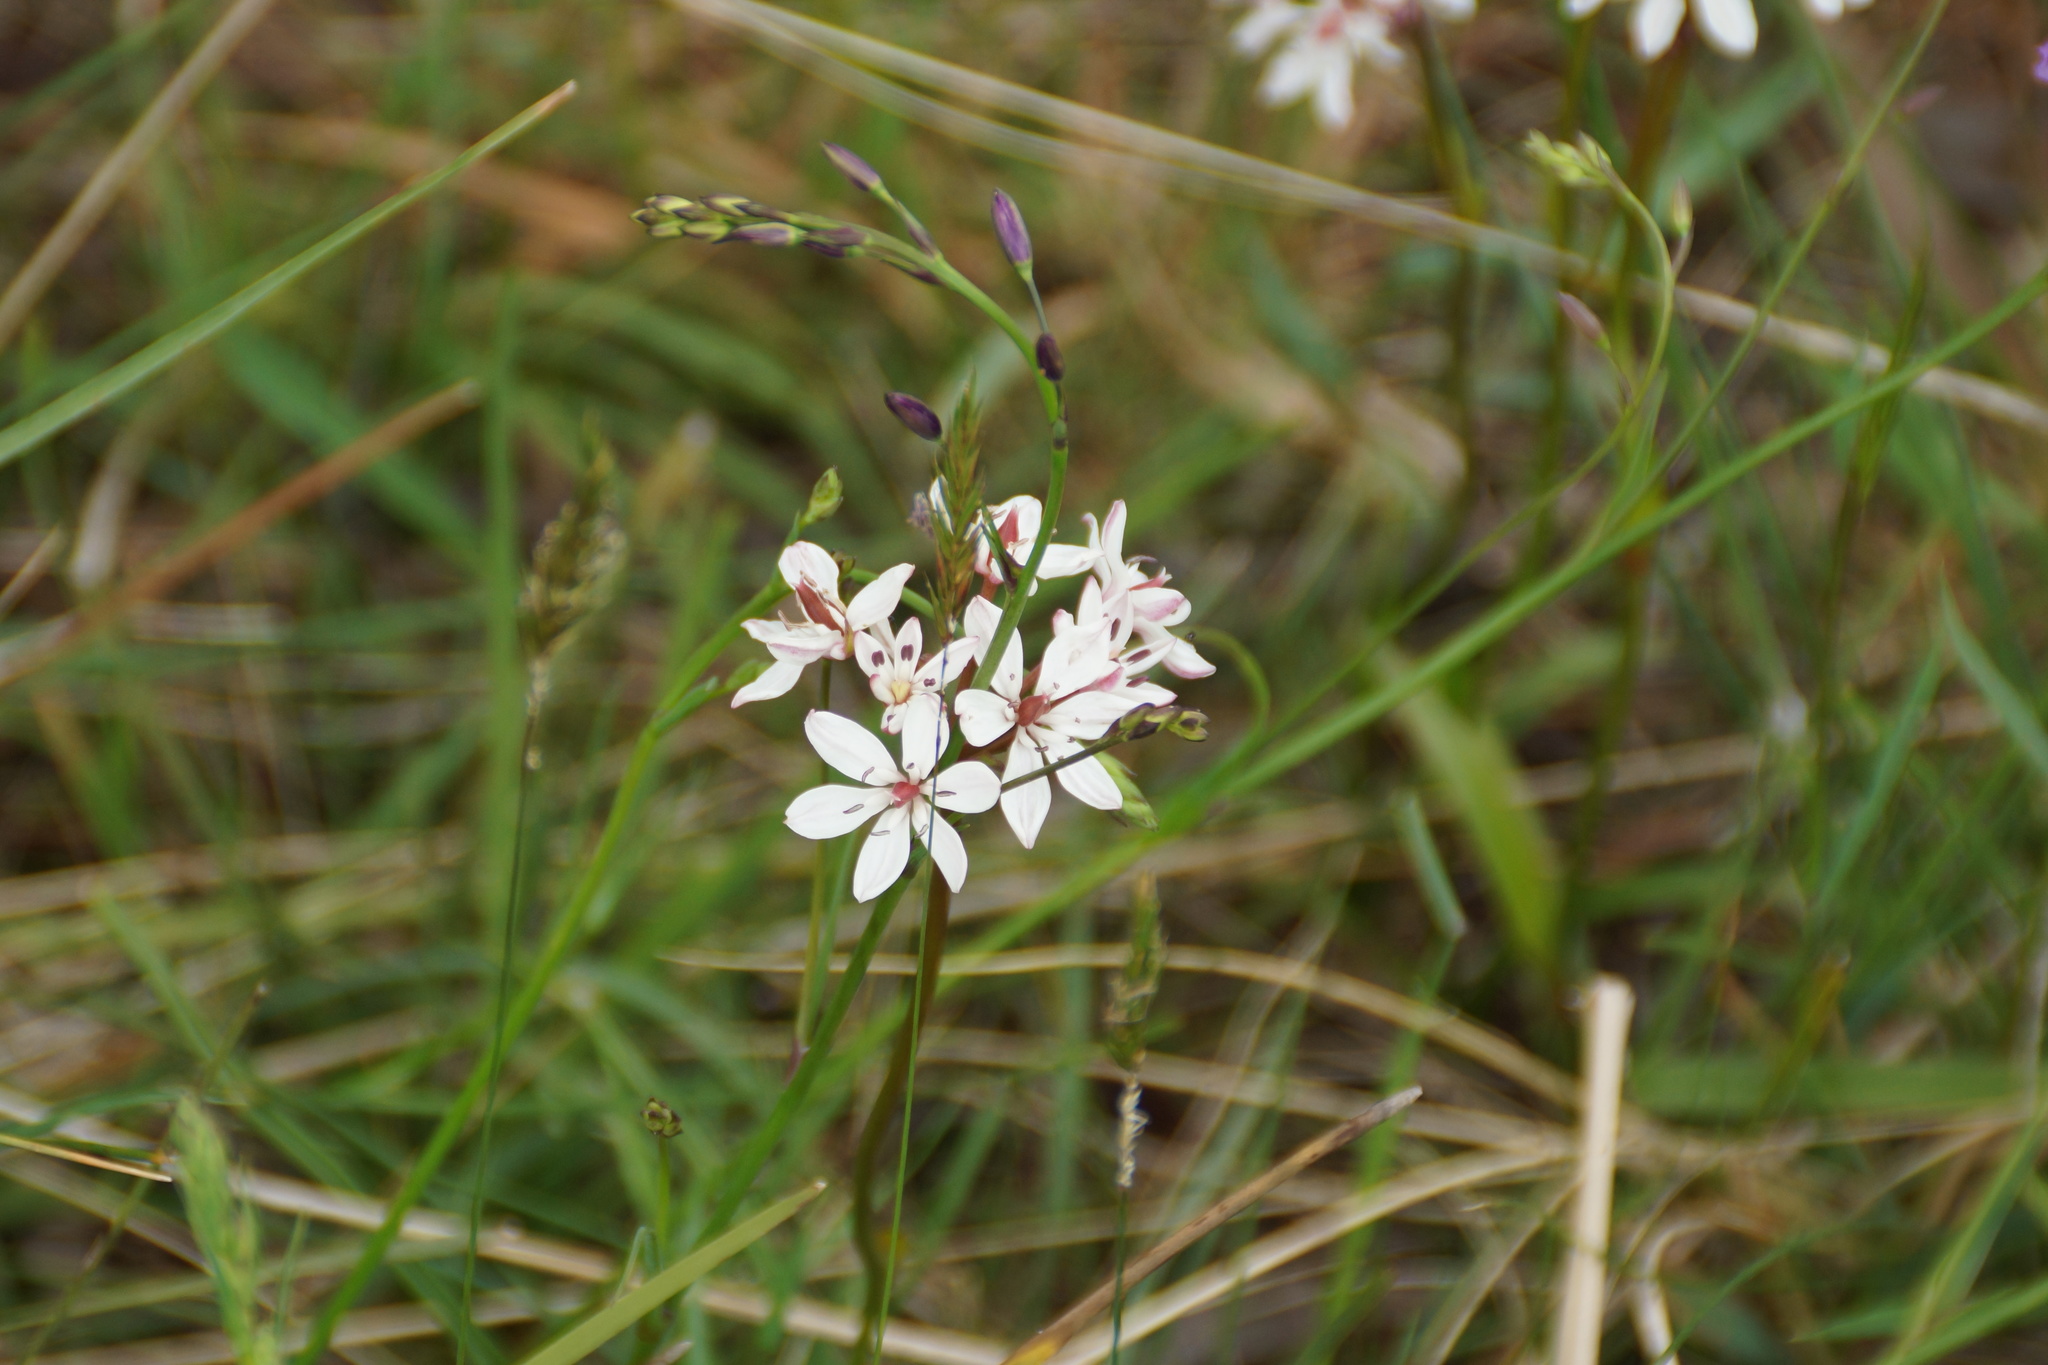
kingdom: Plantae
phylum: Tracheophyta
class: Liliopsida
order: Liliales
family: Colchicaceae
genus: Burchardia
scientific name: Burchardia umbellata
